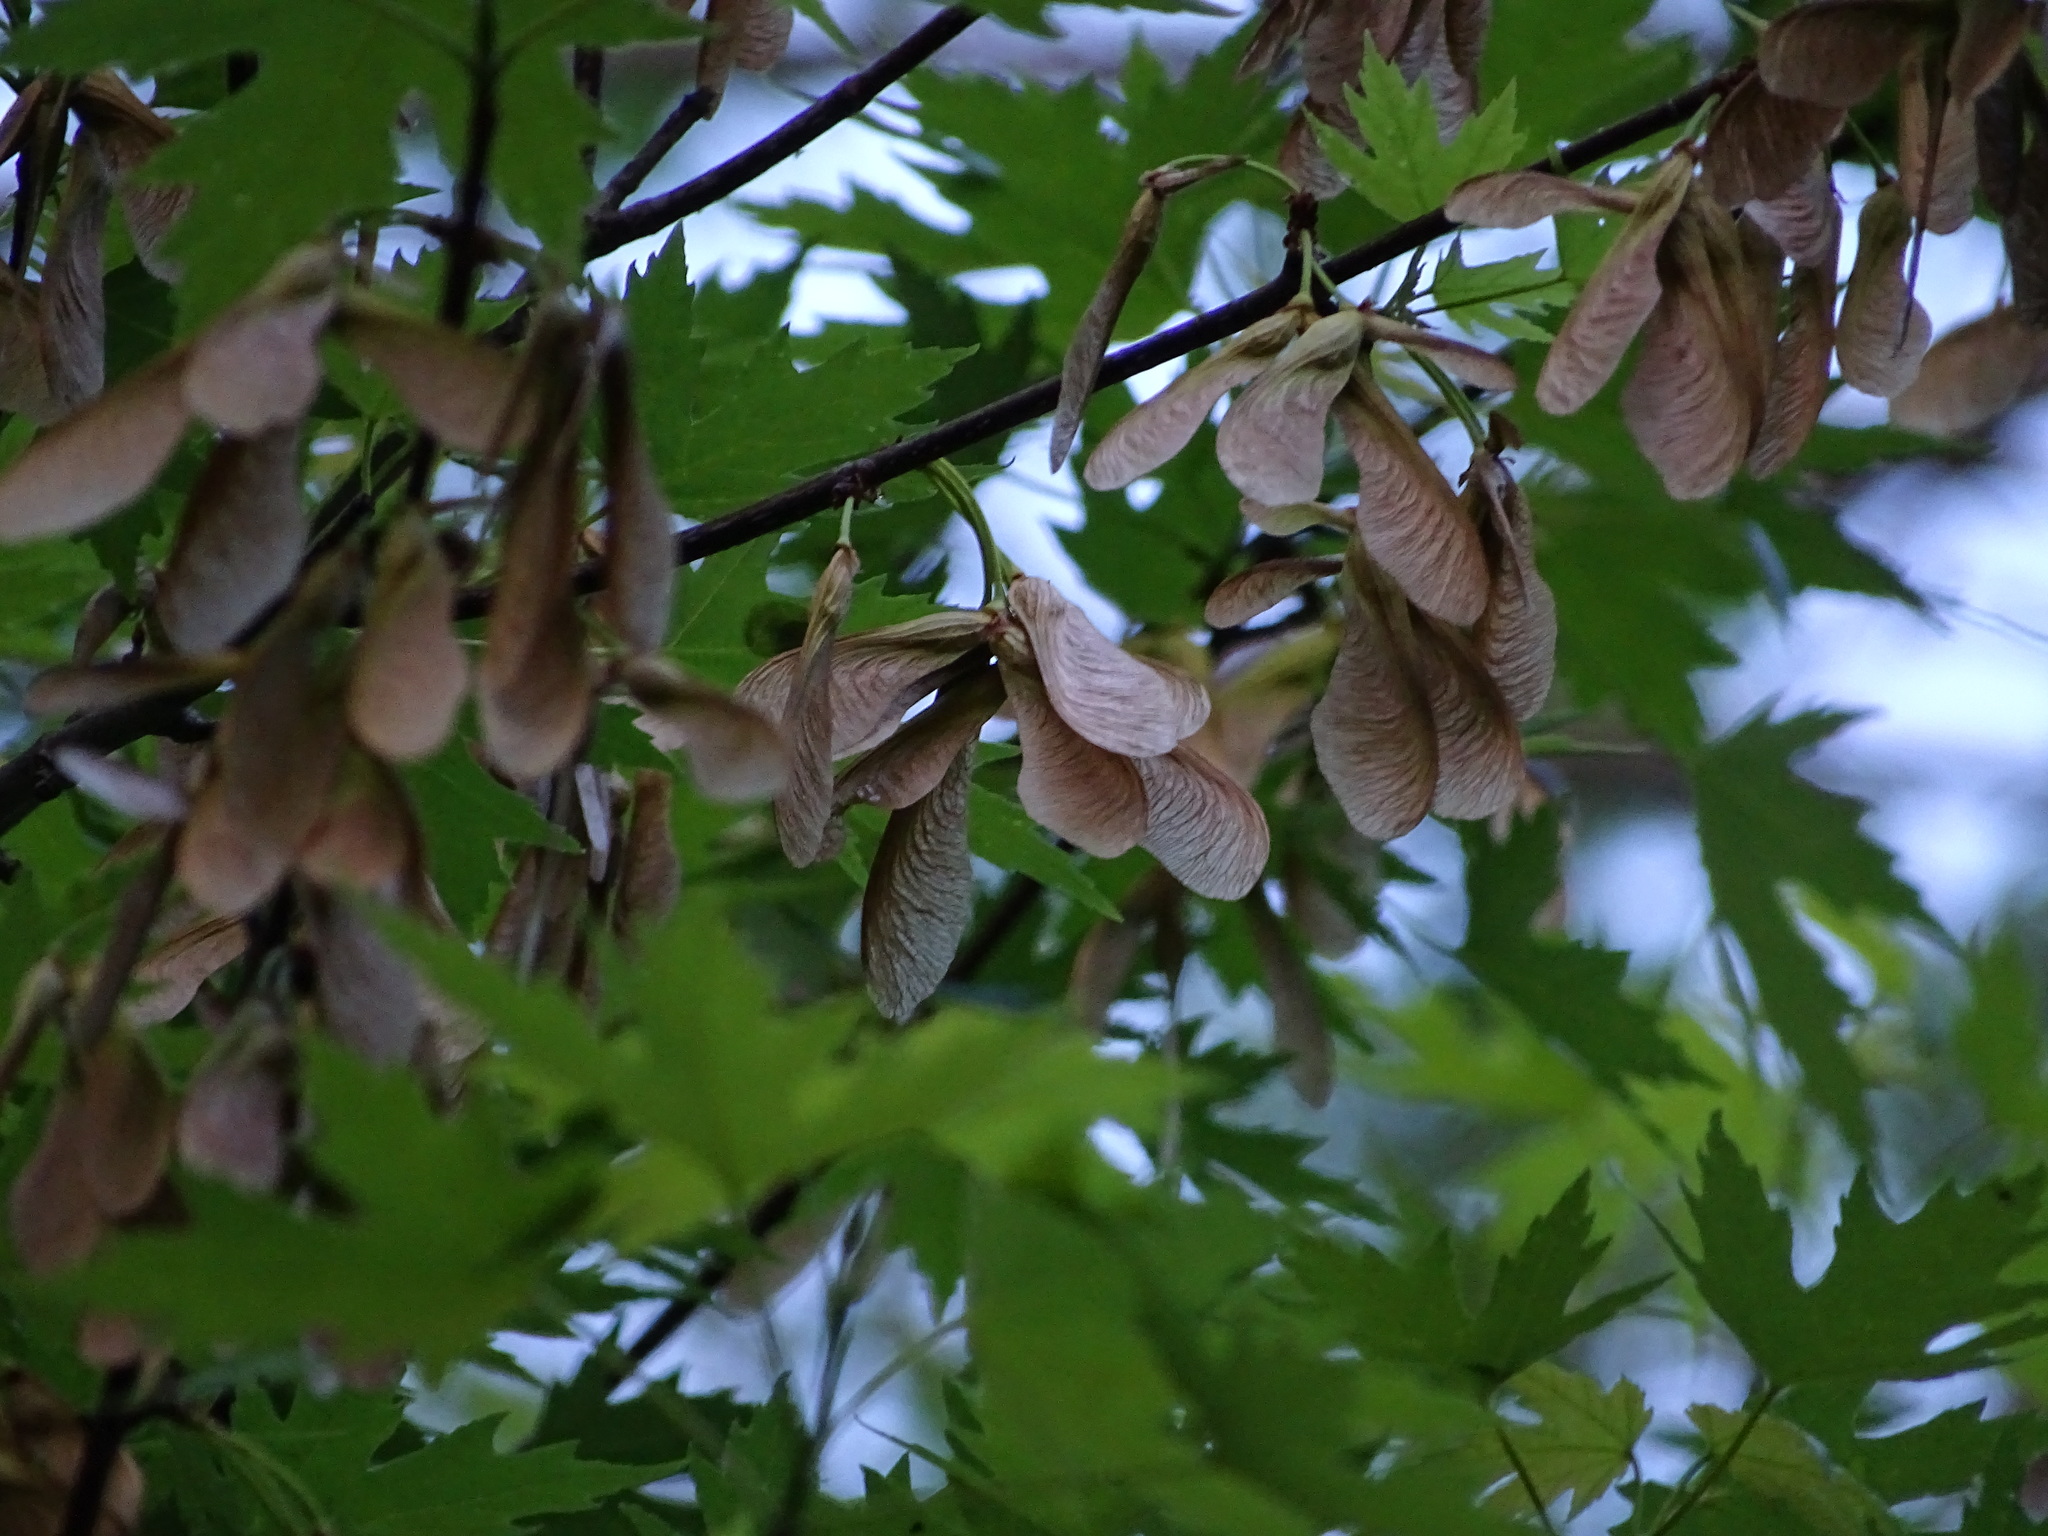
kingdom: Plantae
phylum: Tracheophyta
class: Magnoliopsida
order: Sapindales
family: Sapindaceae
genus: Acer
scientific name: Acer saccharinum
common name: Silver maple
